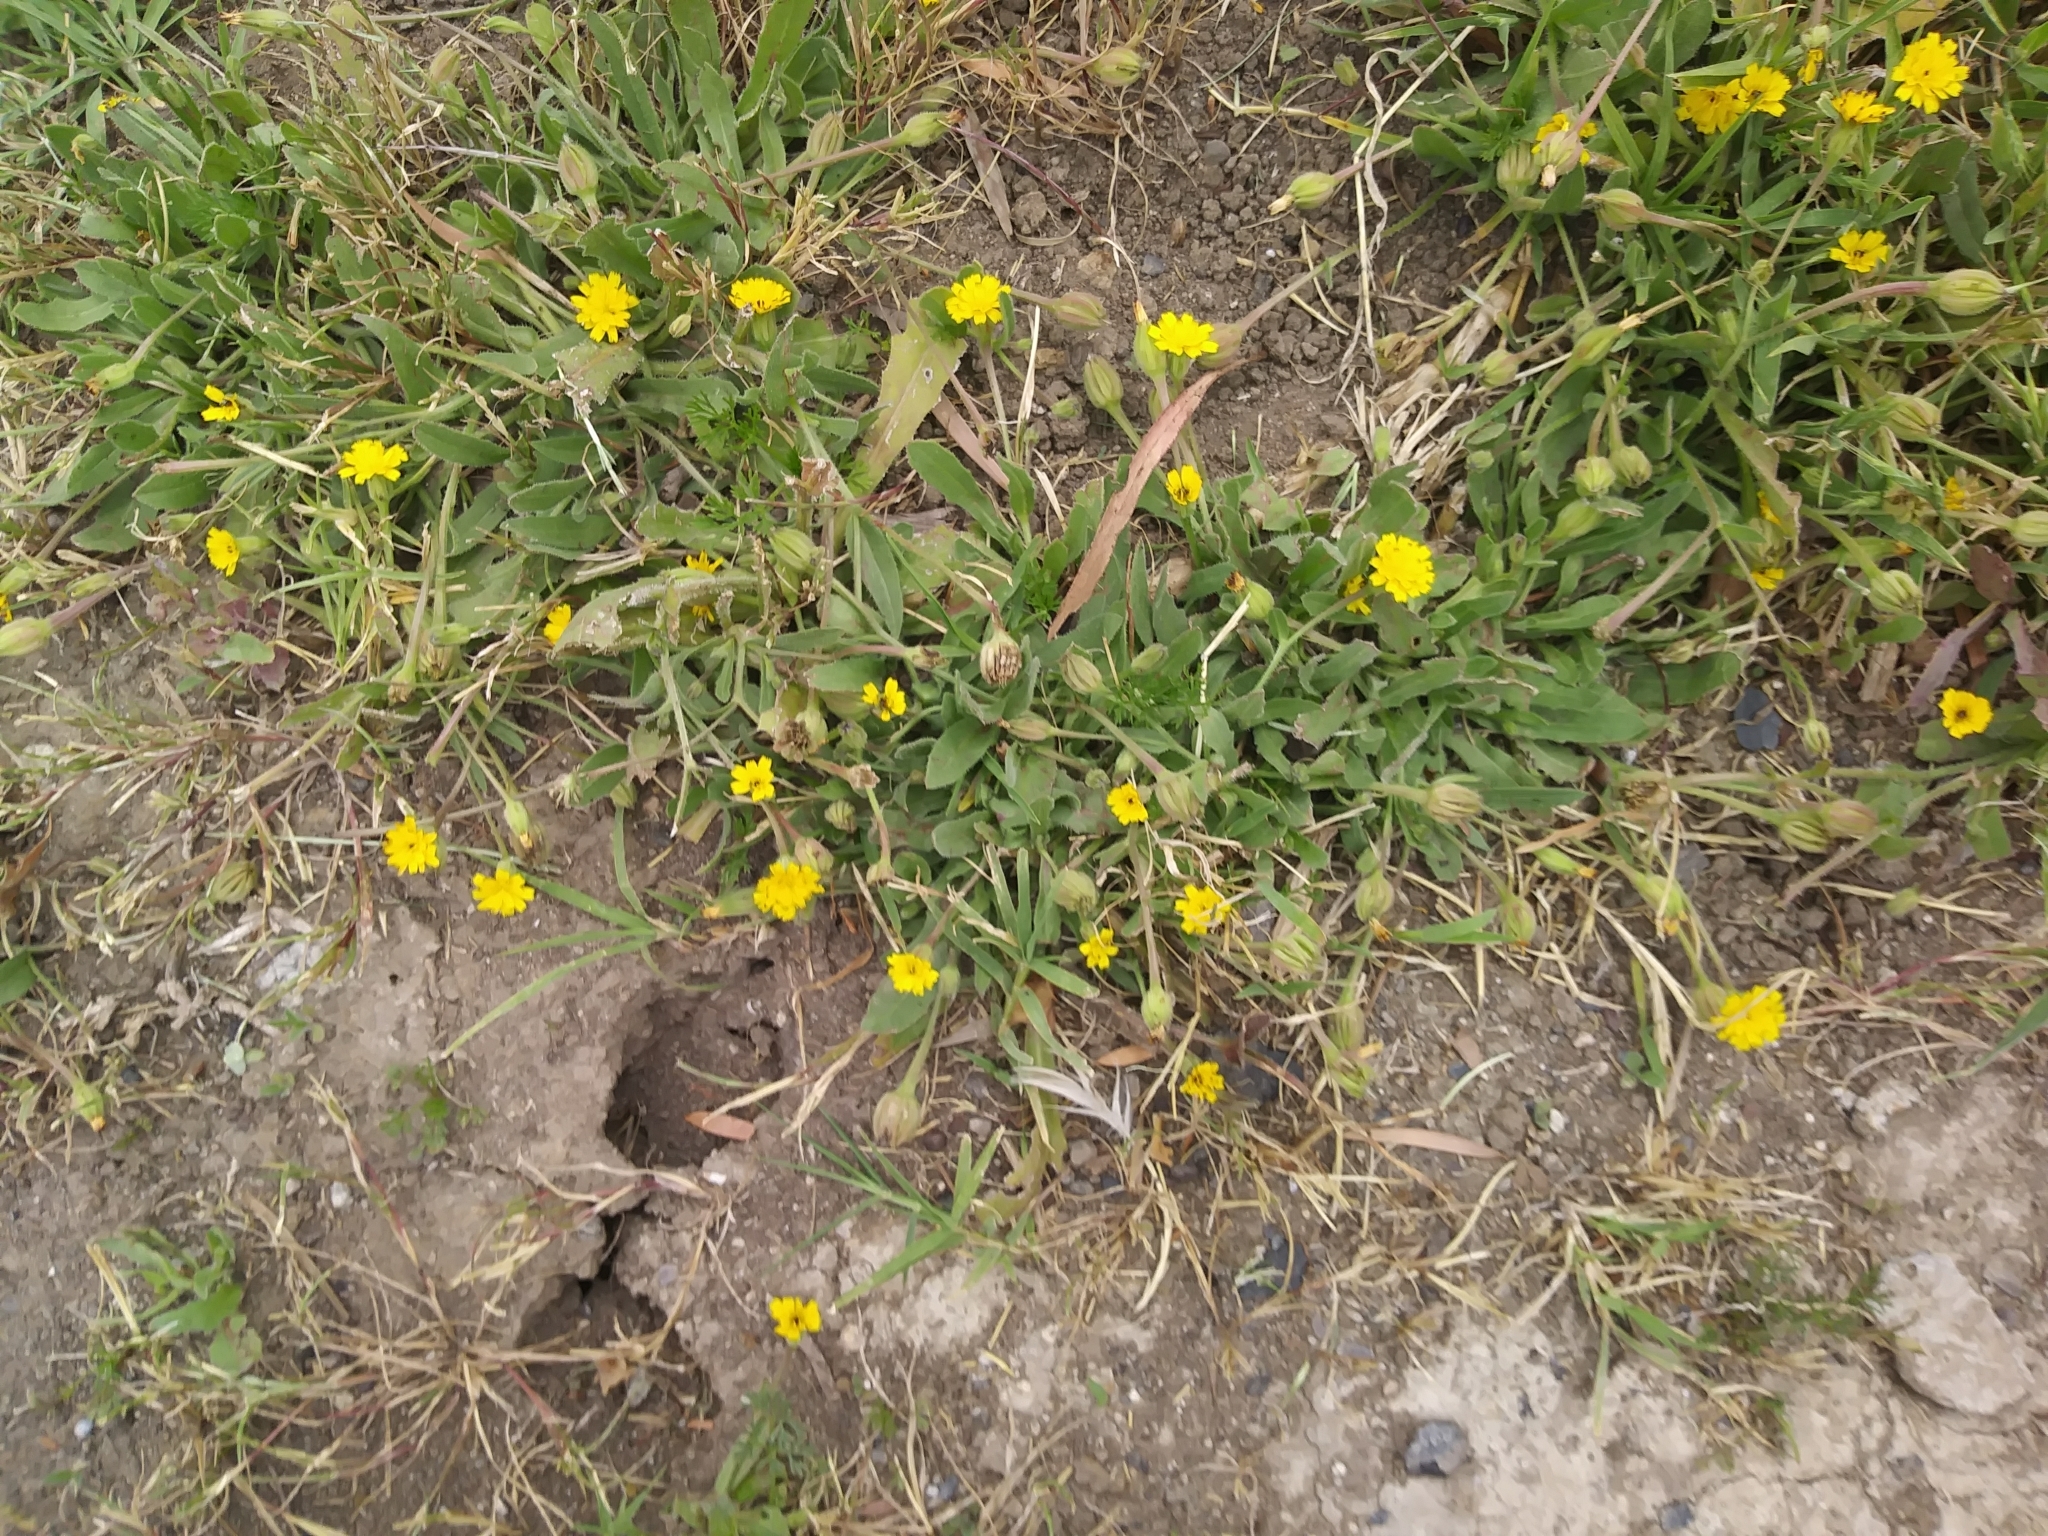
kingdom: Plantae
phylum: Tracheophyta
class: Magnoliopsida
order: Asterales
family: Asteraceae
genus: Hedypnois
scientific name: Hedypnois rhagadioloides
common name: Cretan weed
